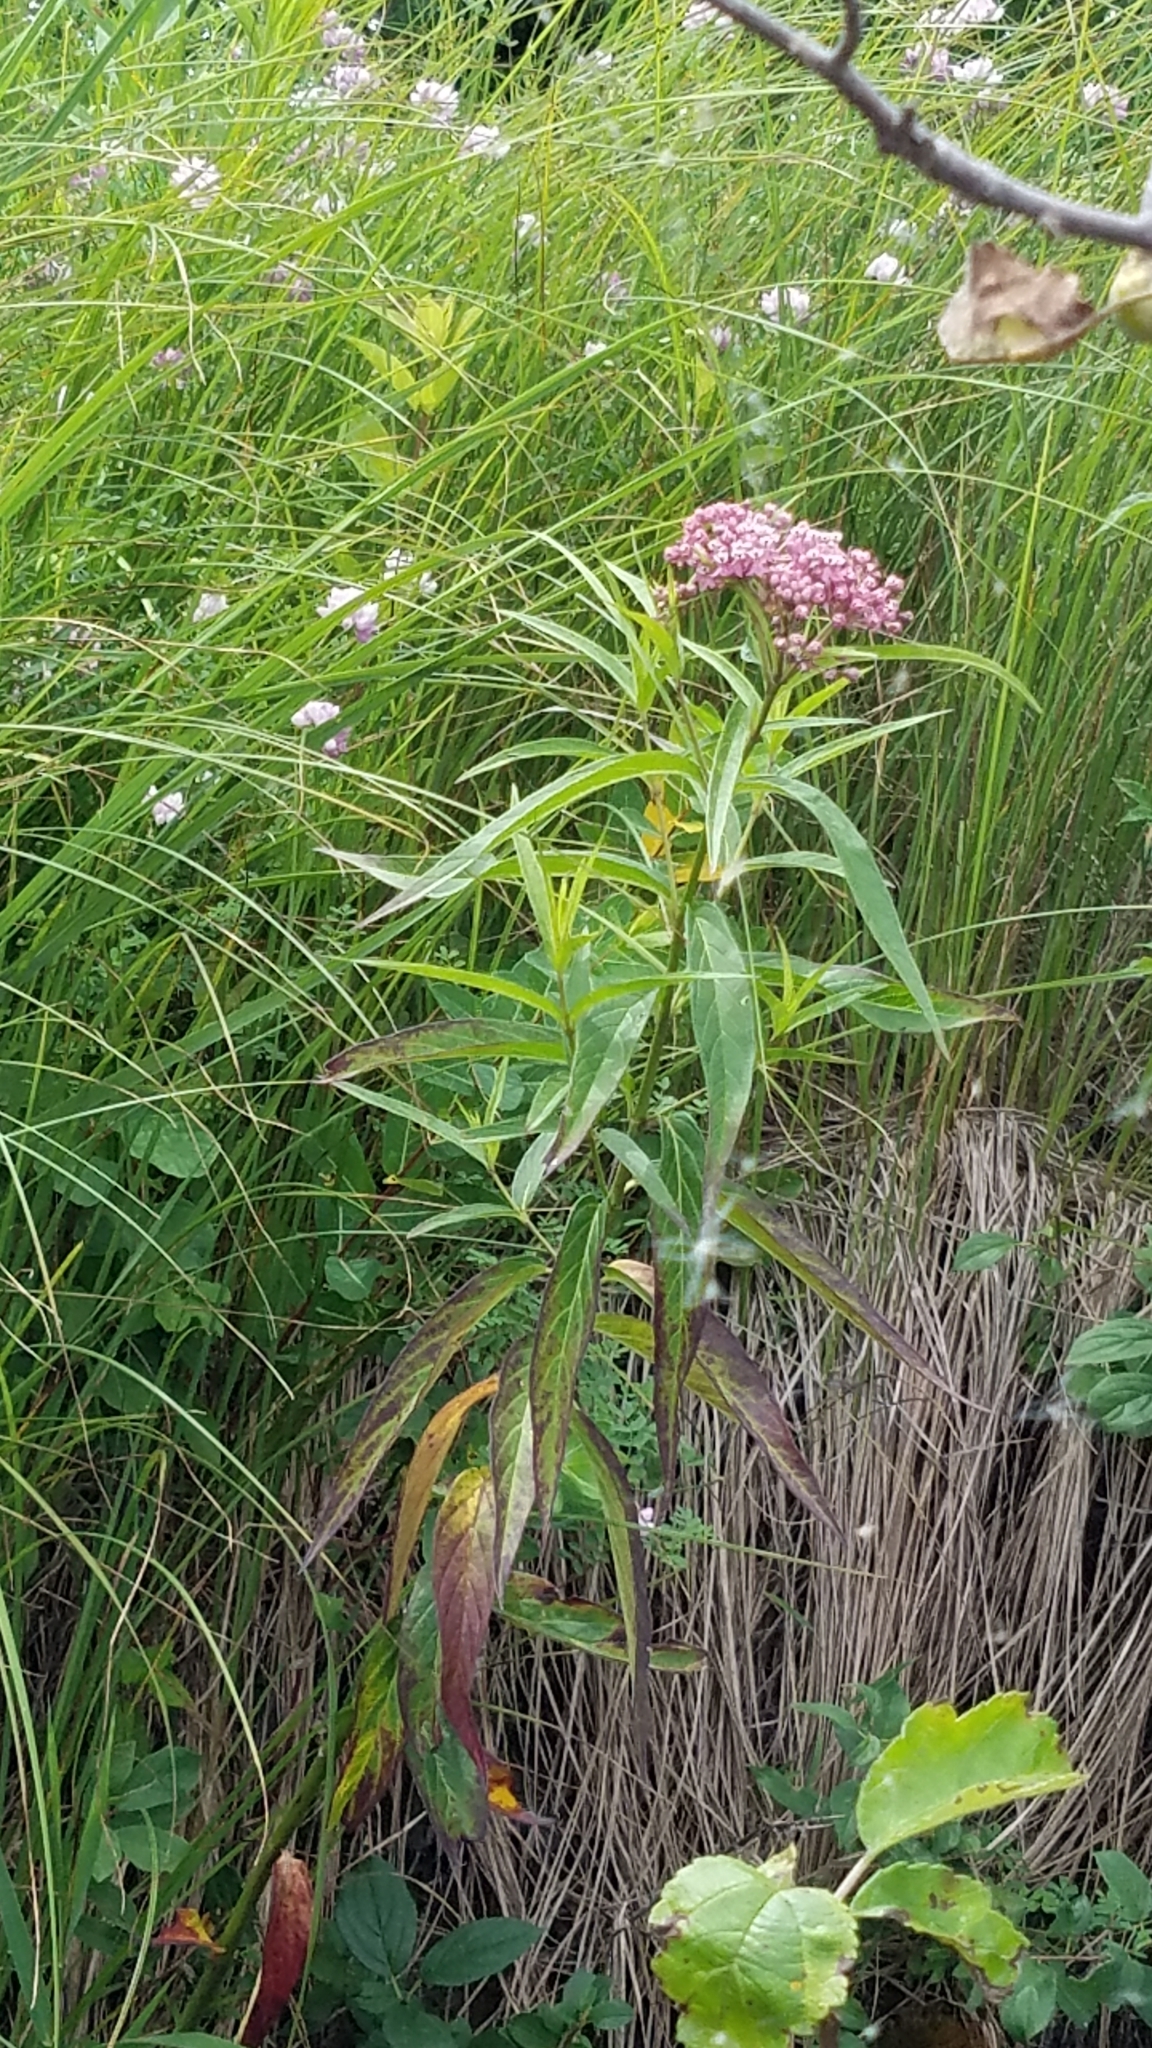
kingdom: Plantae
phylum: Tracheophyta
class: Magnoliopsida
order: Gentianales
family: Apocynaceae
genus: Asclepias
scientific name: Asclepias incarnata
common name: Swamp milkweed
